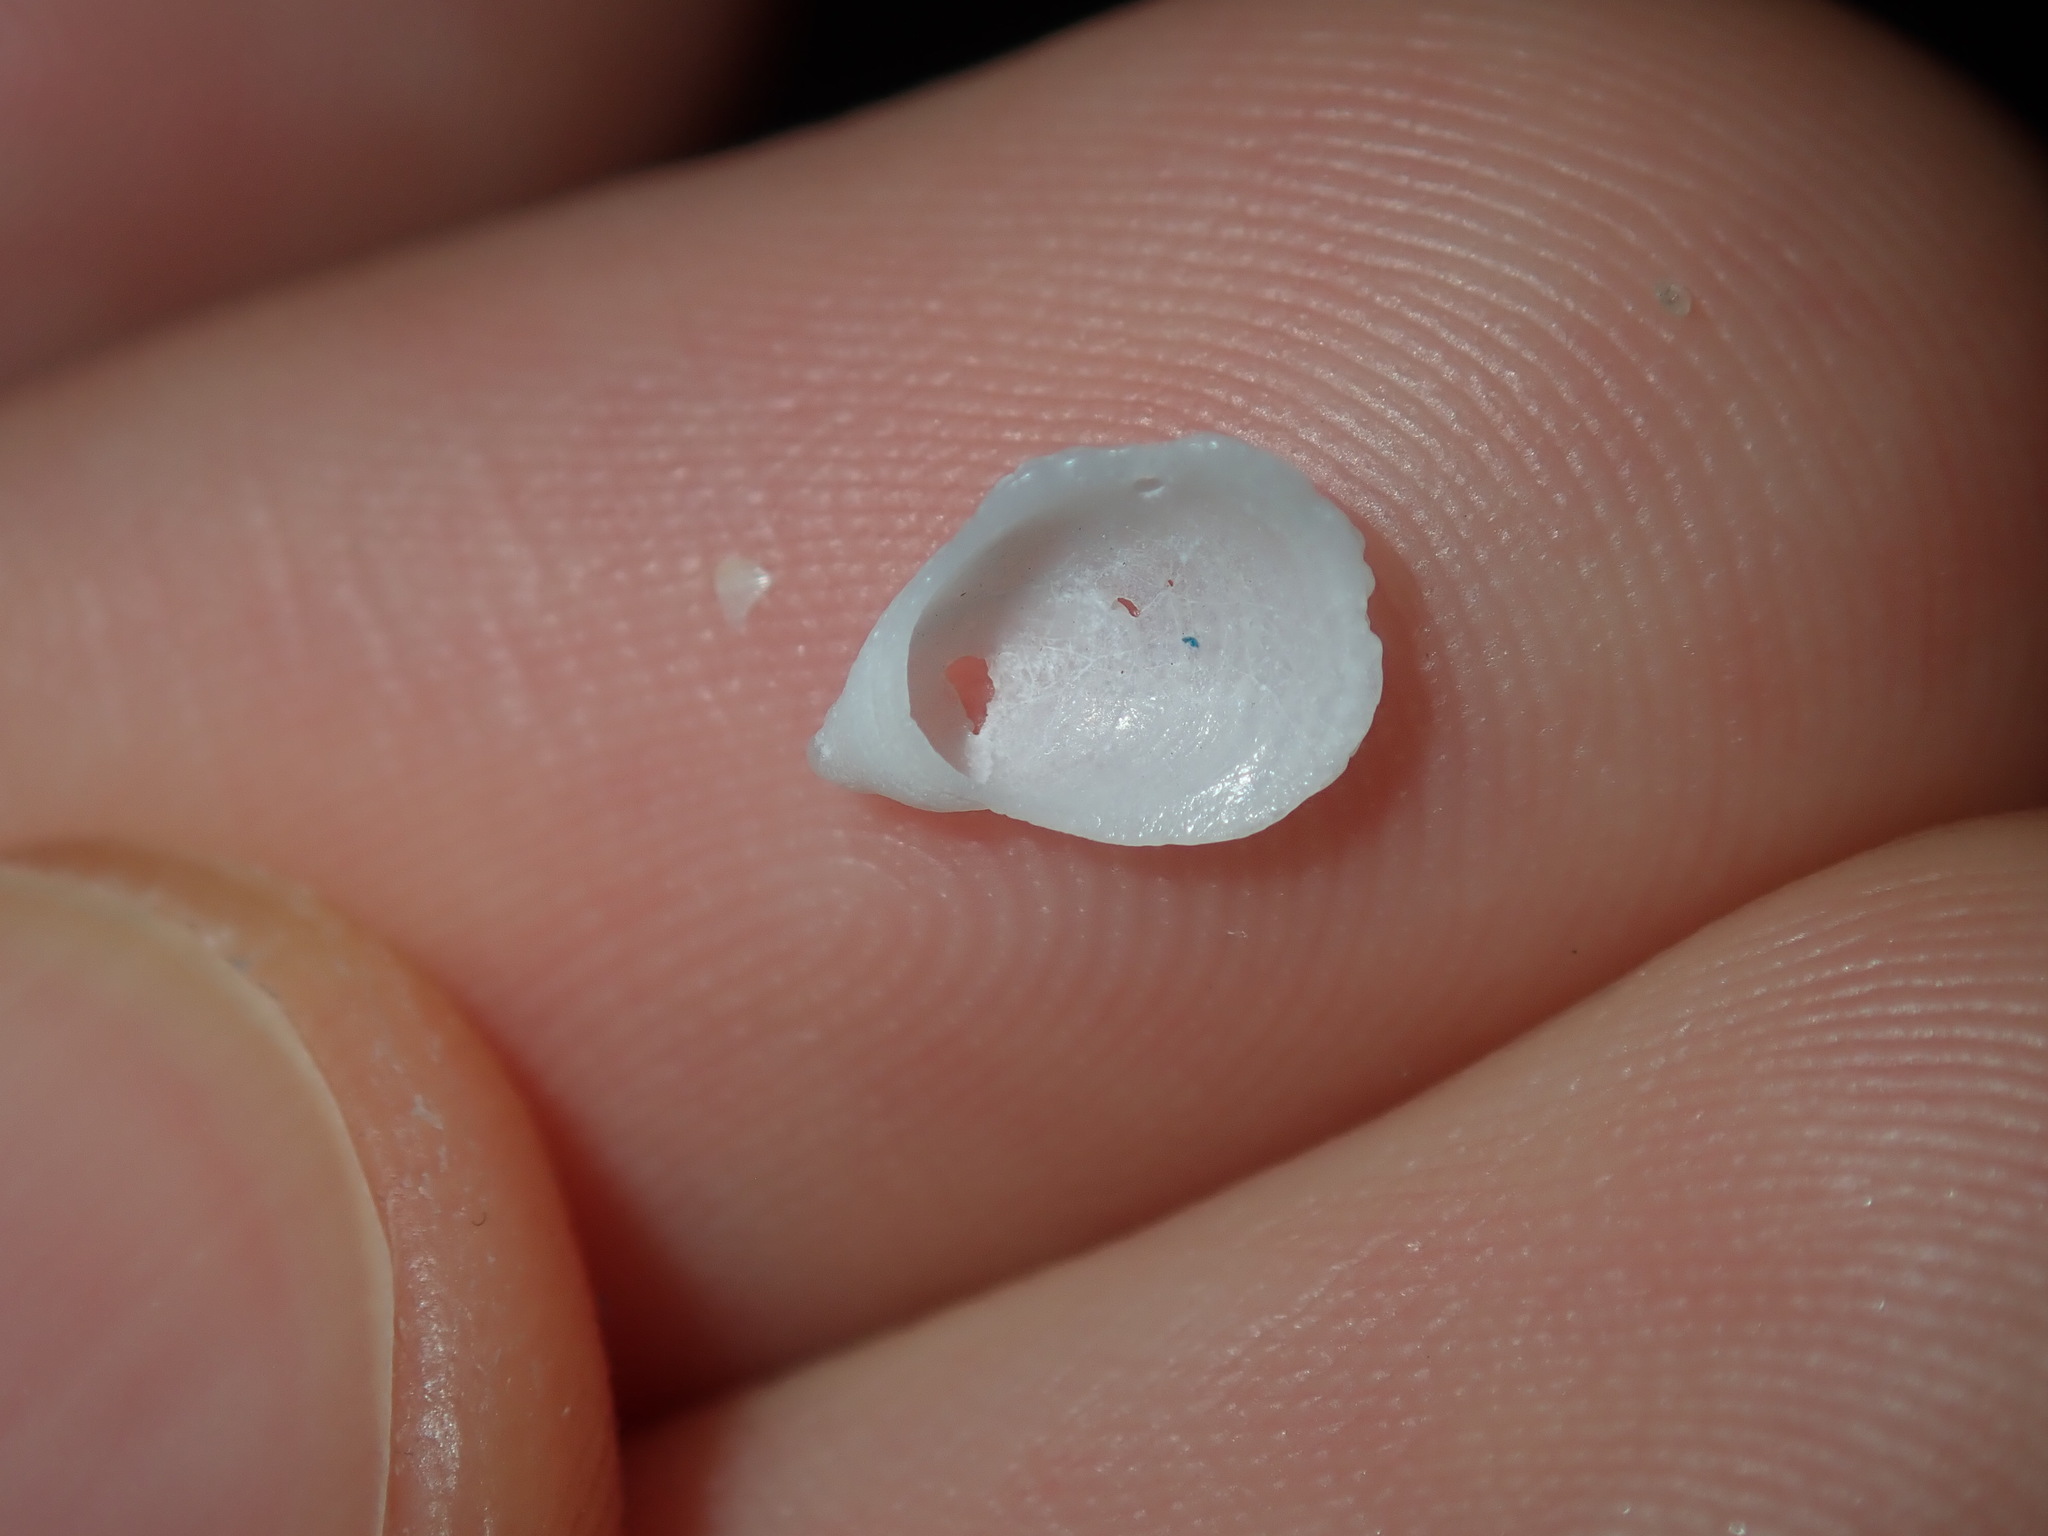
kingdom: Animalia
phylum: Mollusca
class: Gastropoda
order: Littorinimorpha
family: Hipponicidae
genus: Antisabia
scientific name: Antisabia foliacea
